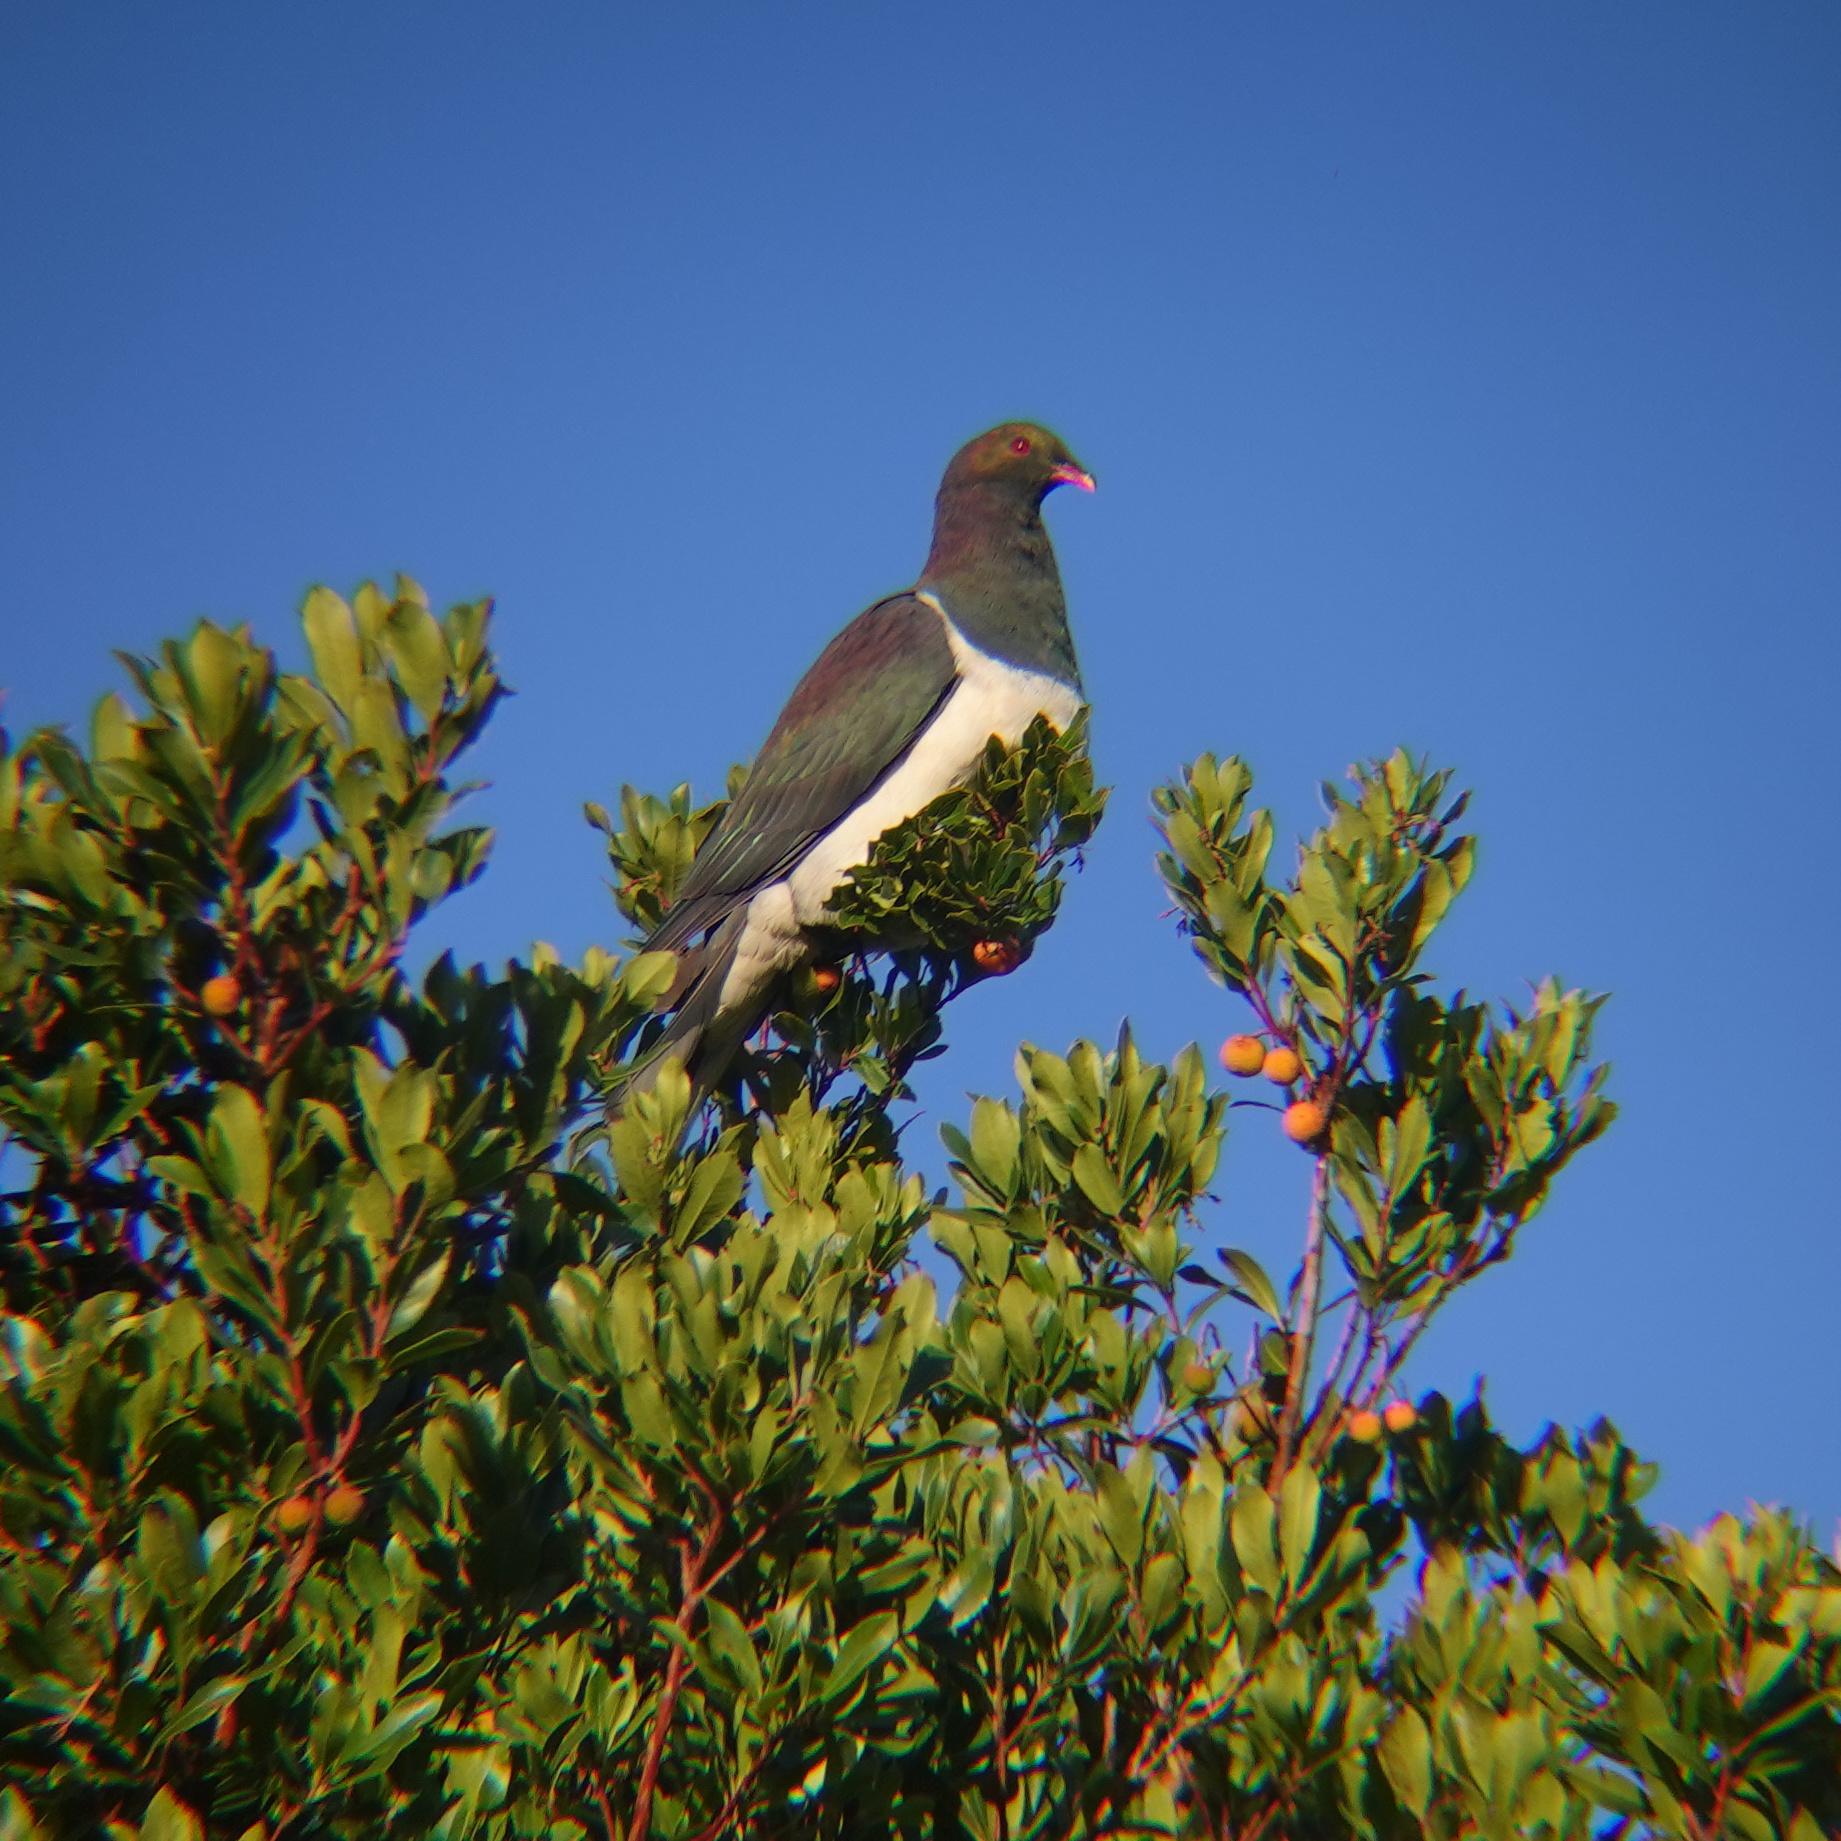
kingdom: Animalia
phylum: Chordata
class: Aves
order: Columbiformes
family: Columbidae
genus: Hemiphaga
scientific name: Hemiphaga novaeseelandiae
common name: New zealand pigeon
